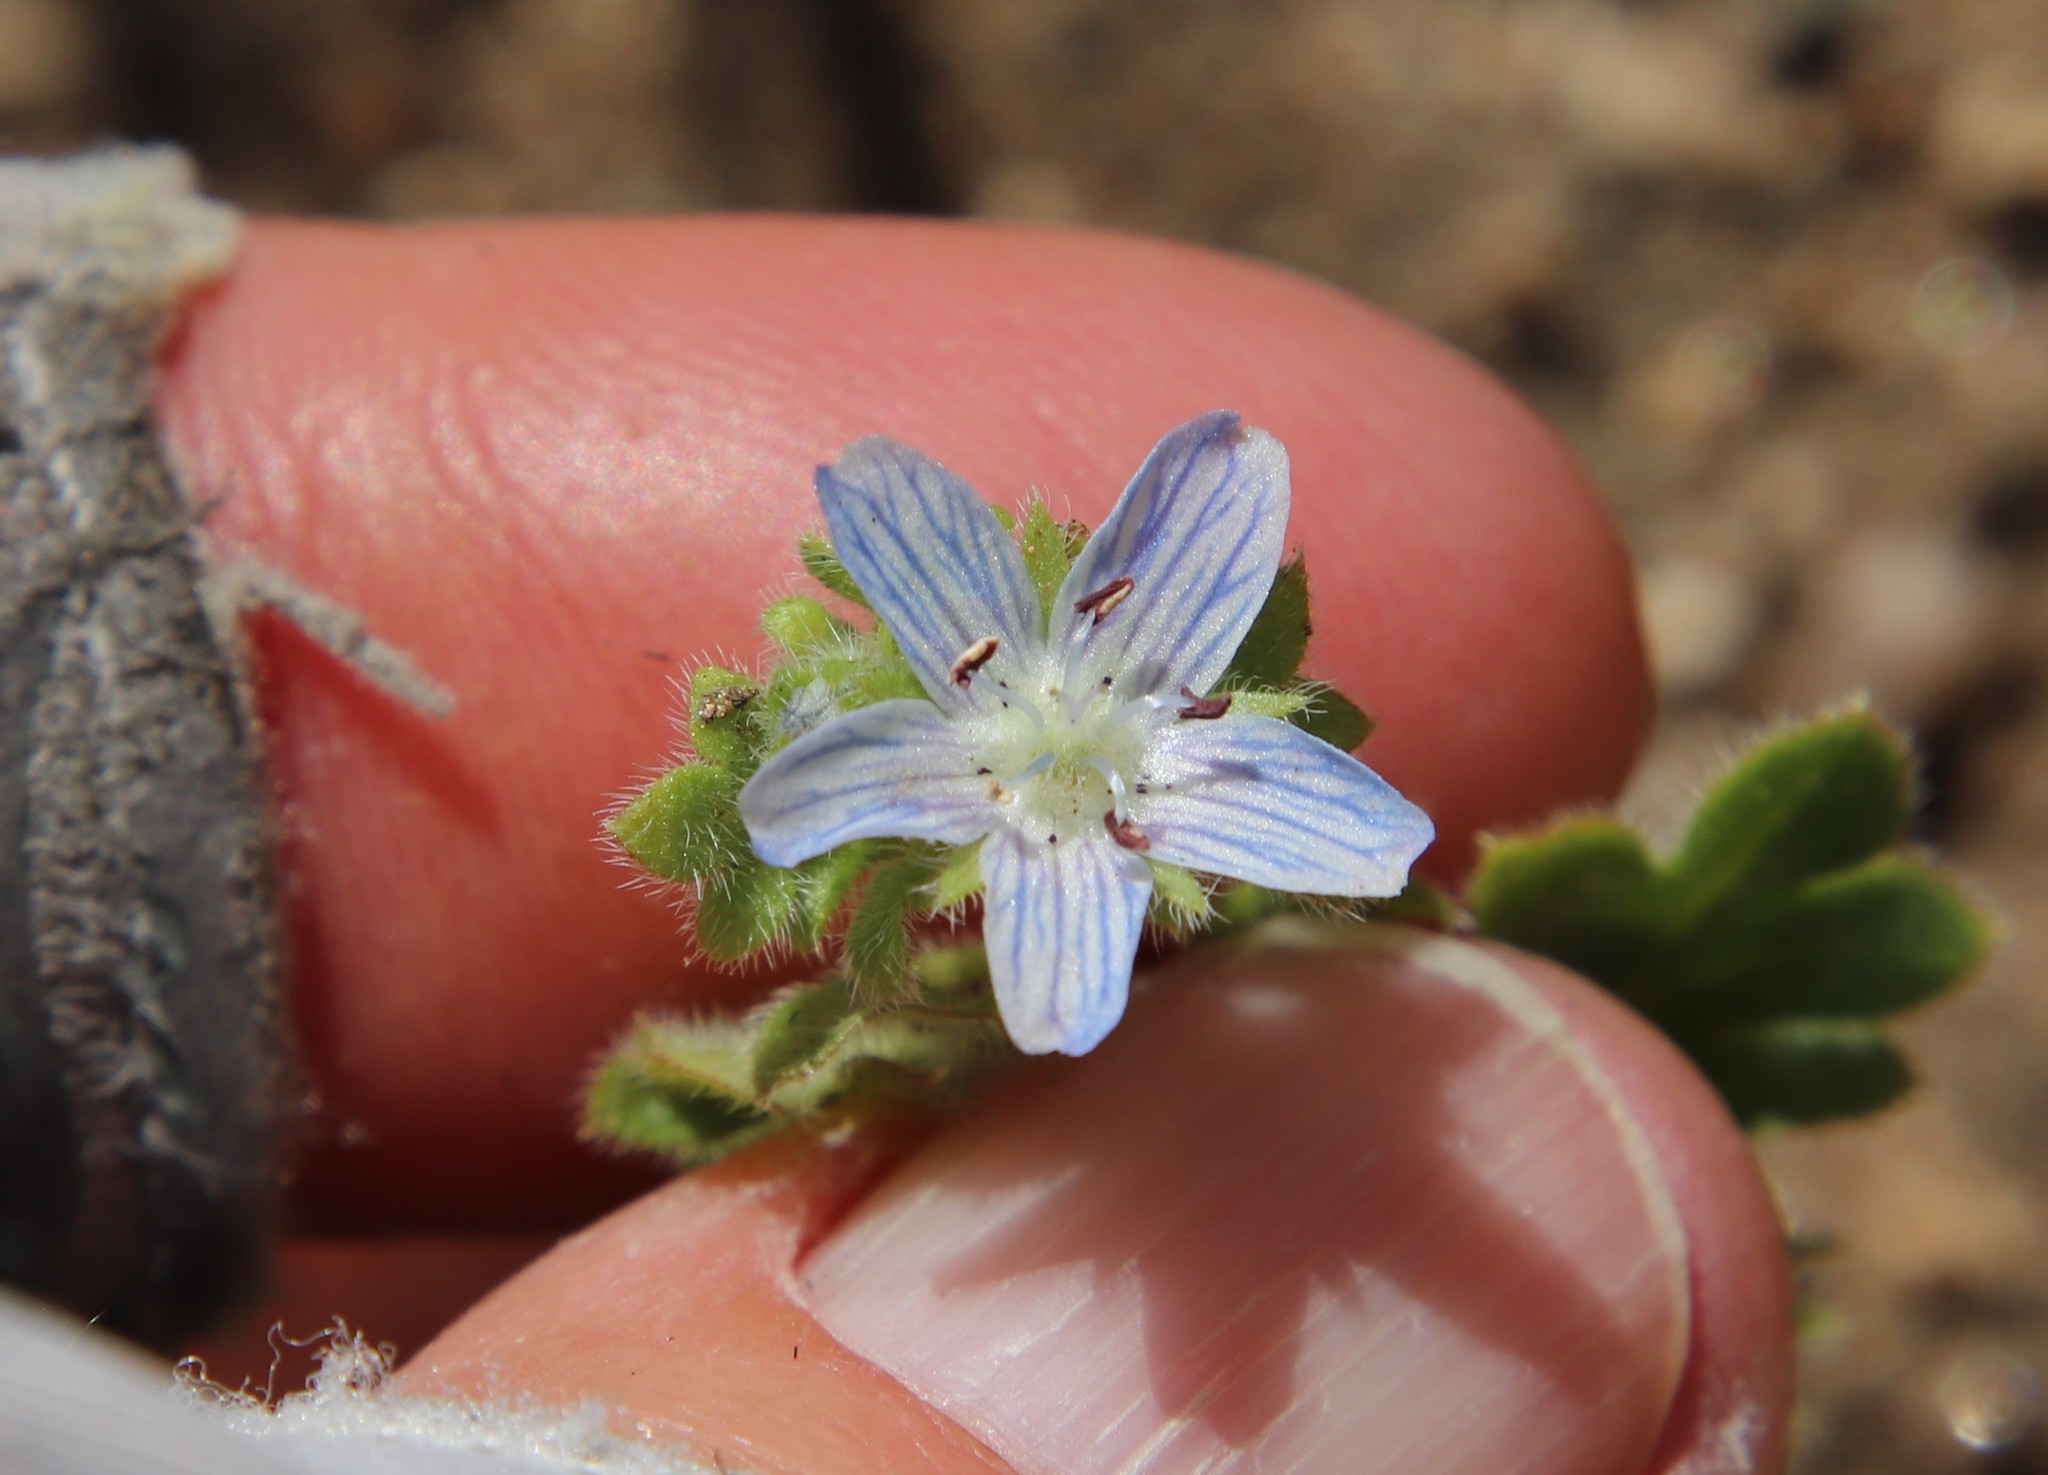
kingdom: Plantae
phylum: Tracheophyta
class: Magnoliopsida
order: Boraginales
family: Hydrophyllaceae
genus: Nemophila
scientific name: Nemophila menziesii
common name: Baby's-blue-eyes
